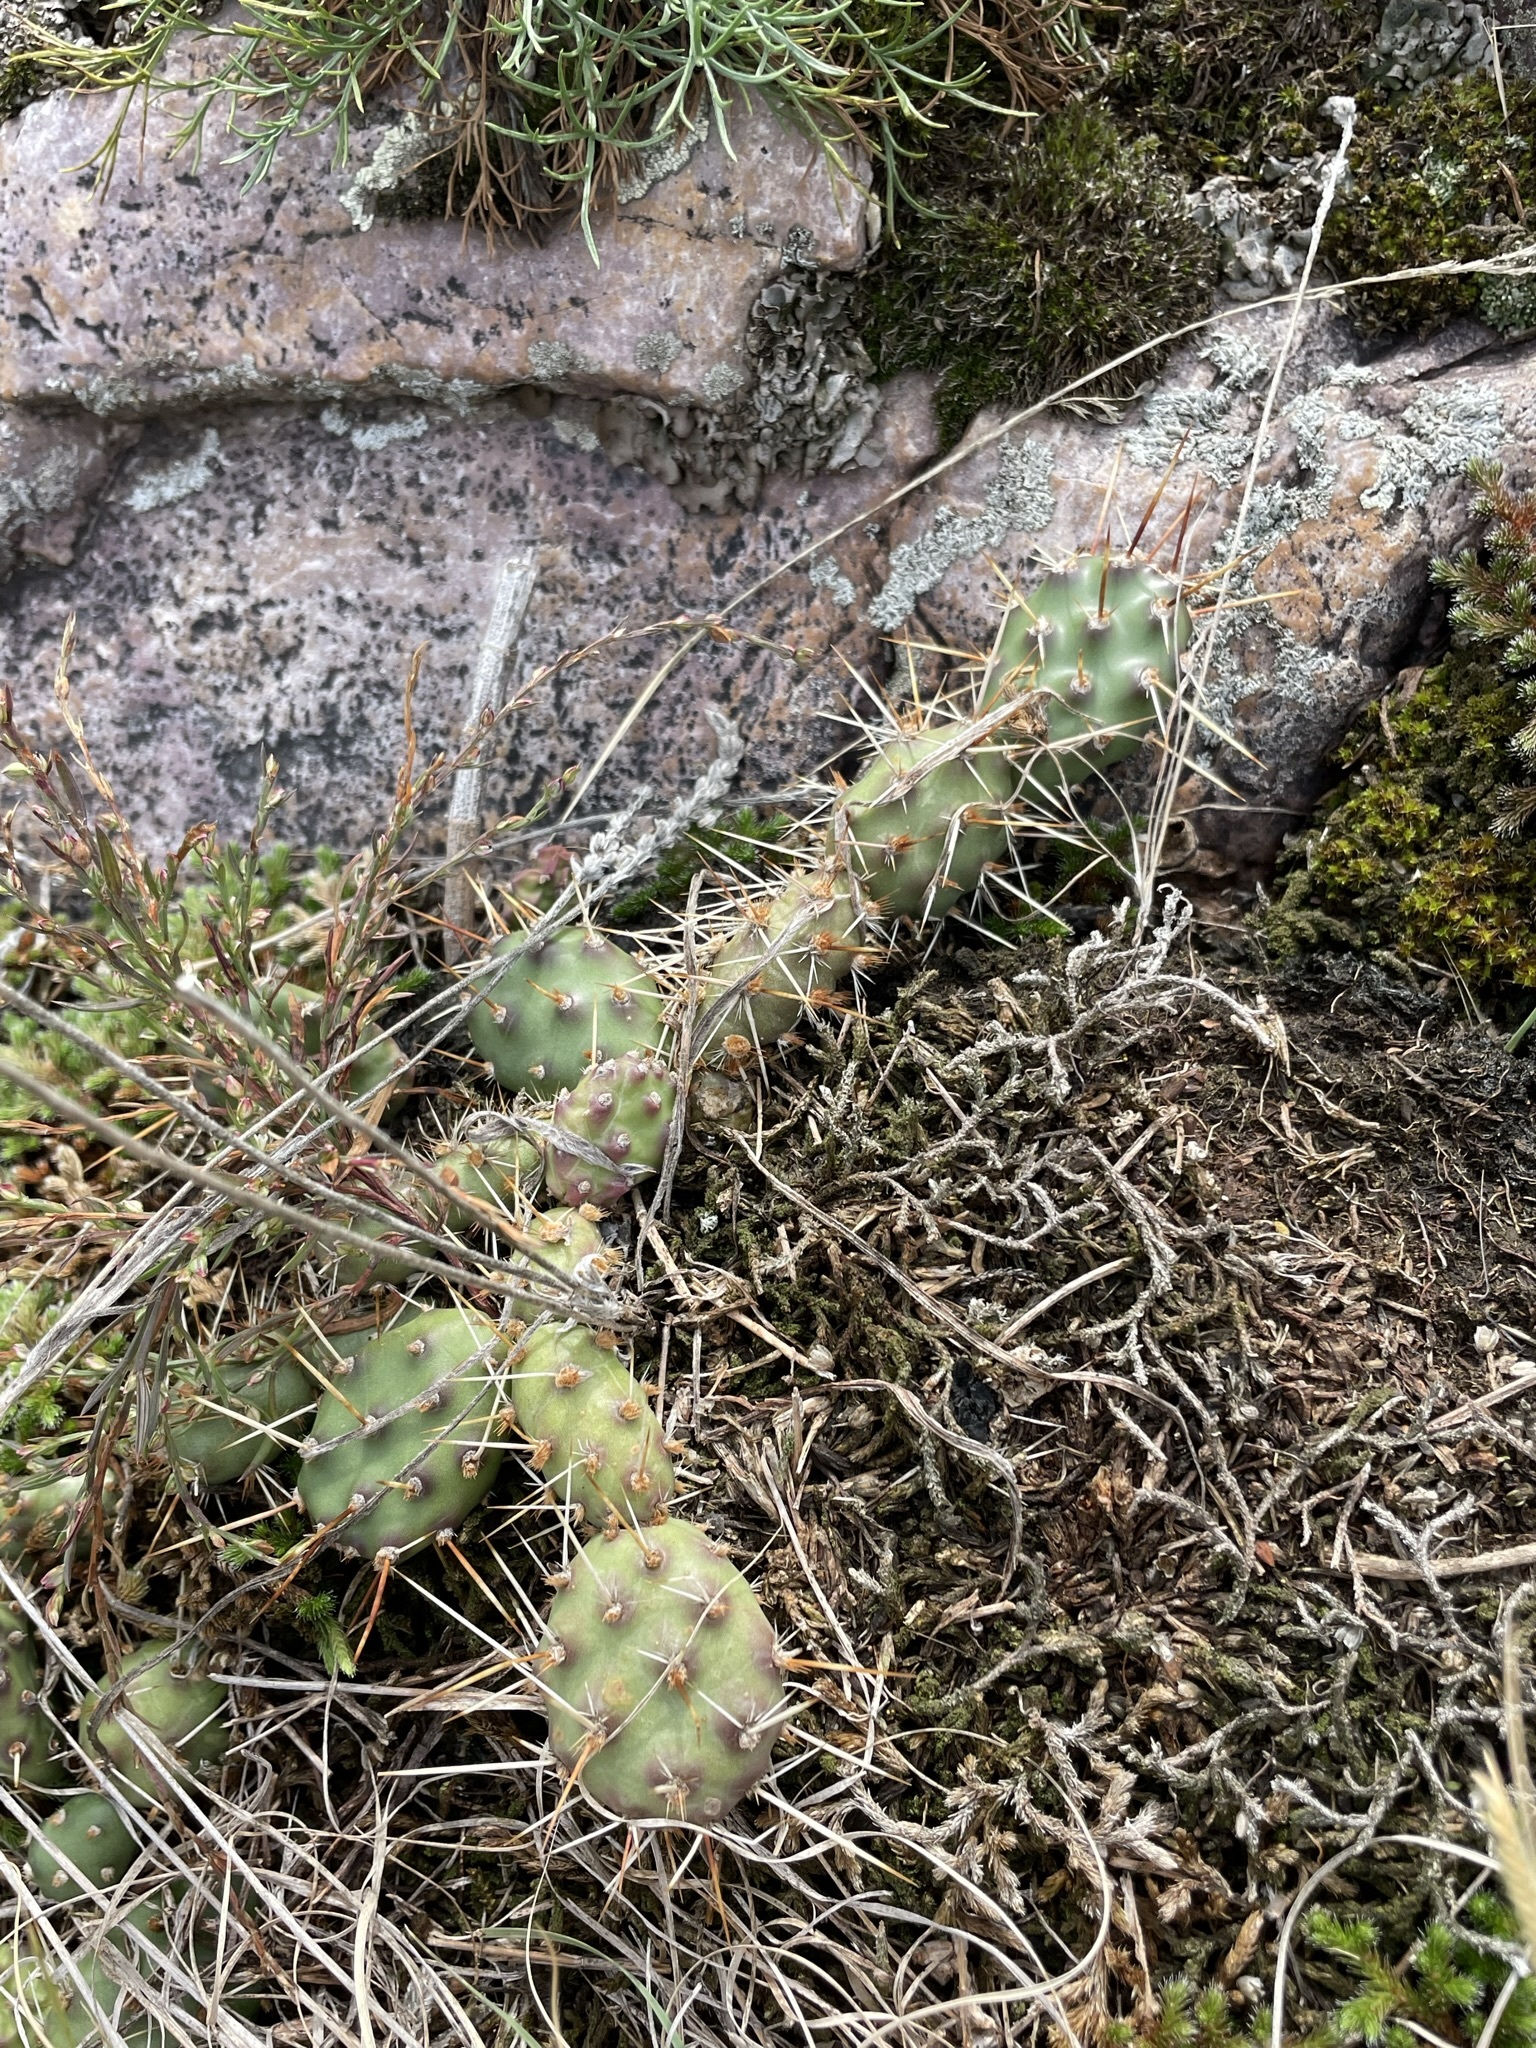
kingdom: Plantae
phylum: Tracheophyta
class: Magnoliopsida
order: Caryophyllales
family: Cactaceae
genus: Opuntia
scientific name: Opuntia fragilis
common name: Brittle cactus
